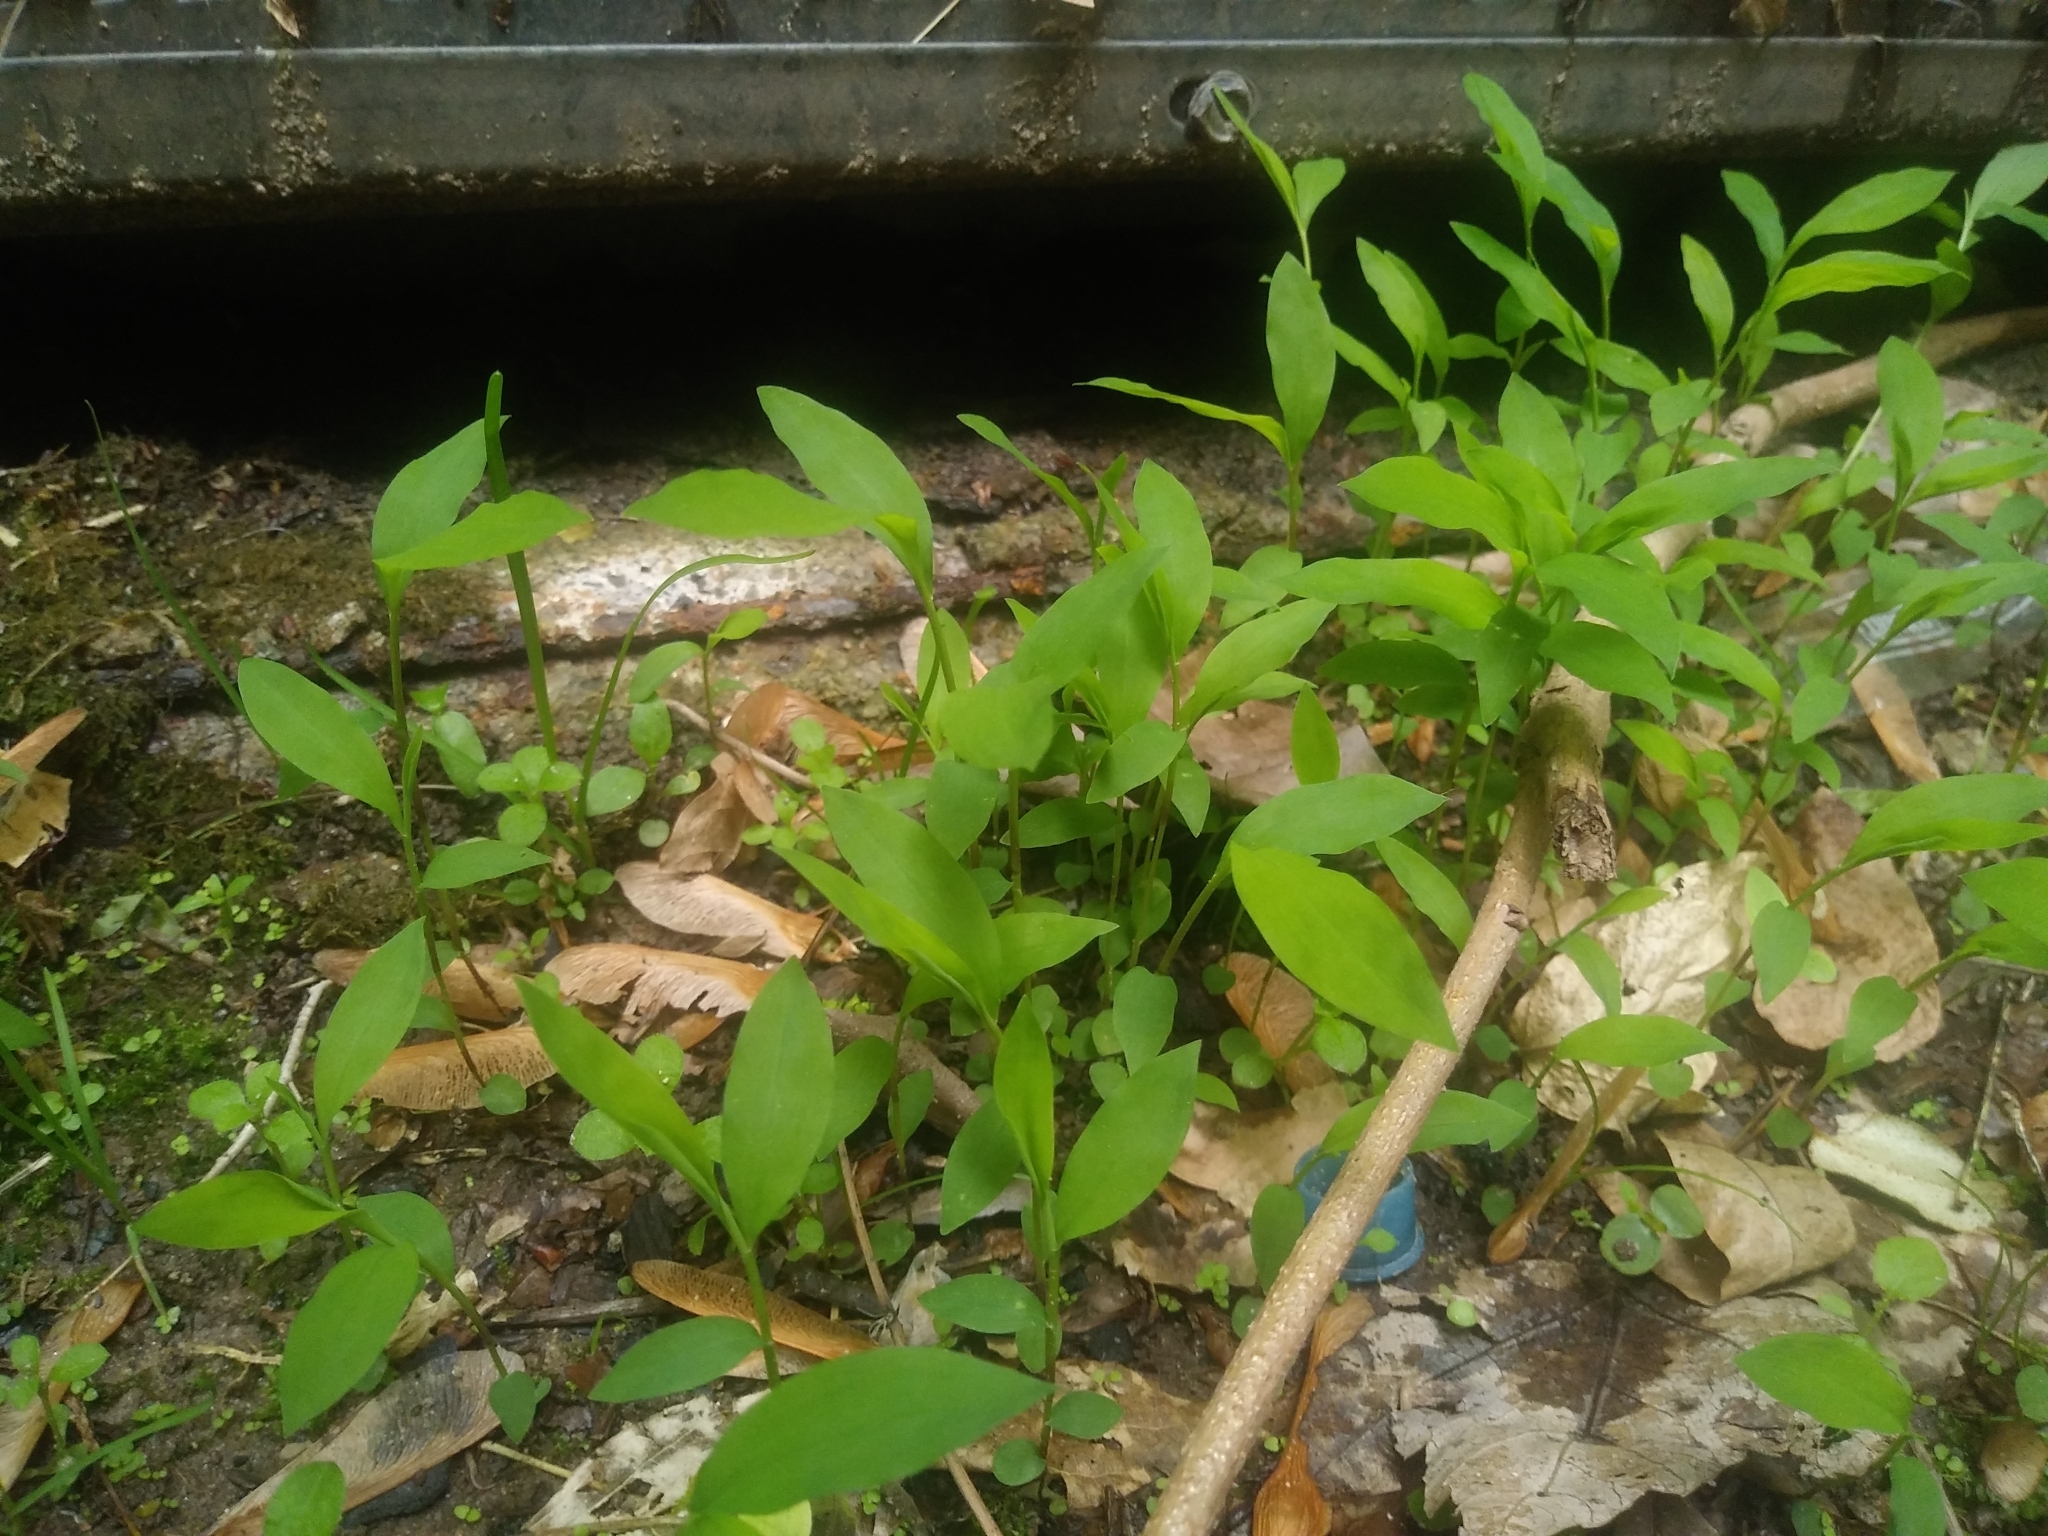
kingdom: Plantae
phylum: Tracheophyta
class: Liliopsida
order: Poales
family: Poaceae
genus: Microstegium
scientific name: Microstegium vimineum
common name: Japanese stiltgrass
